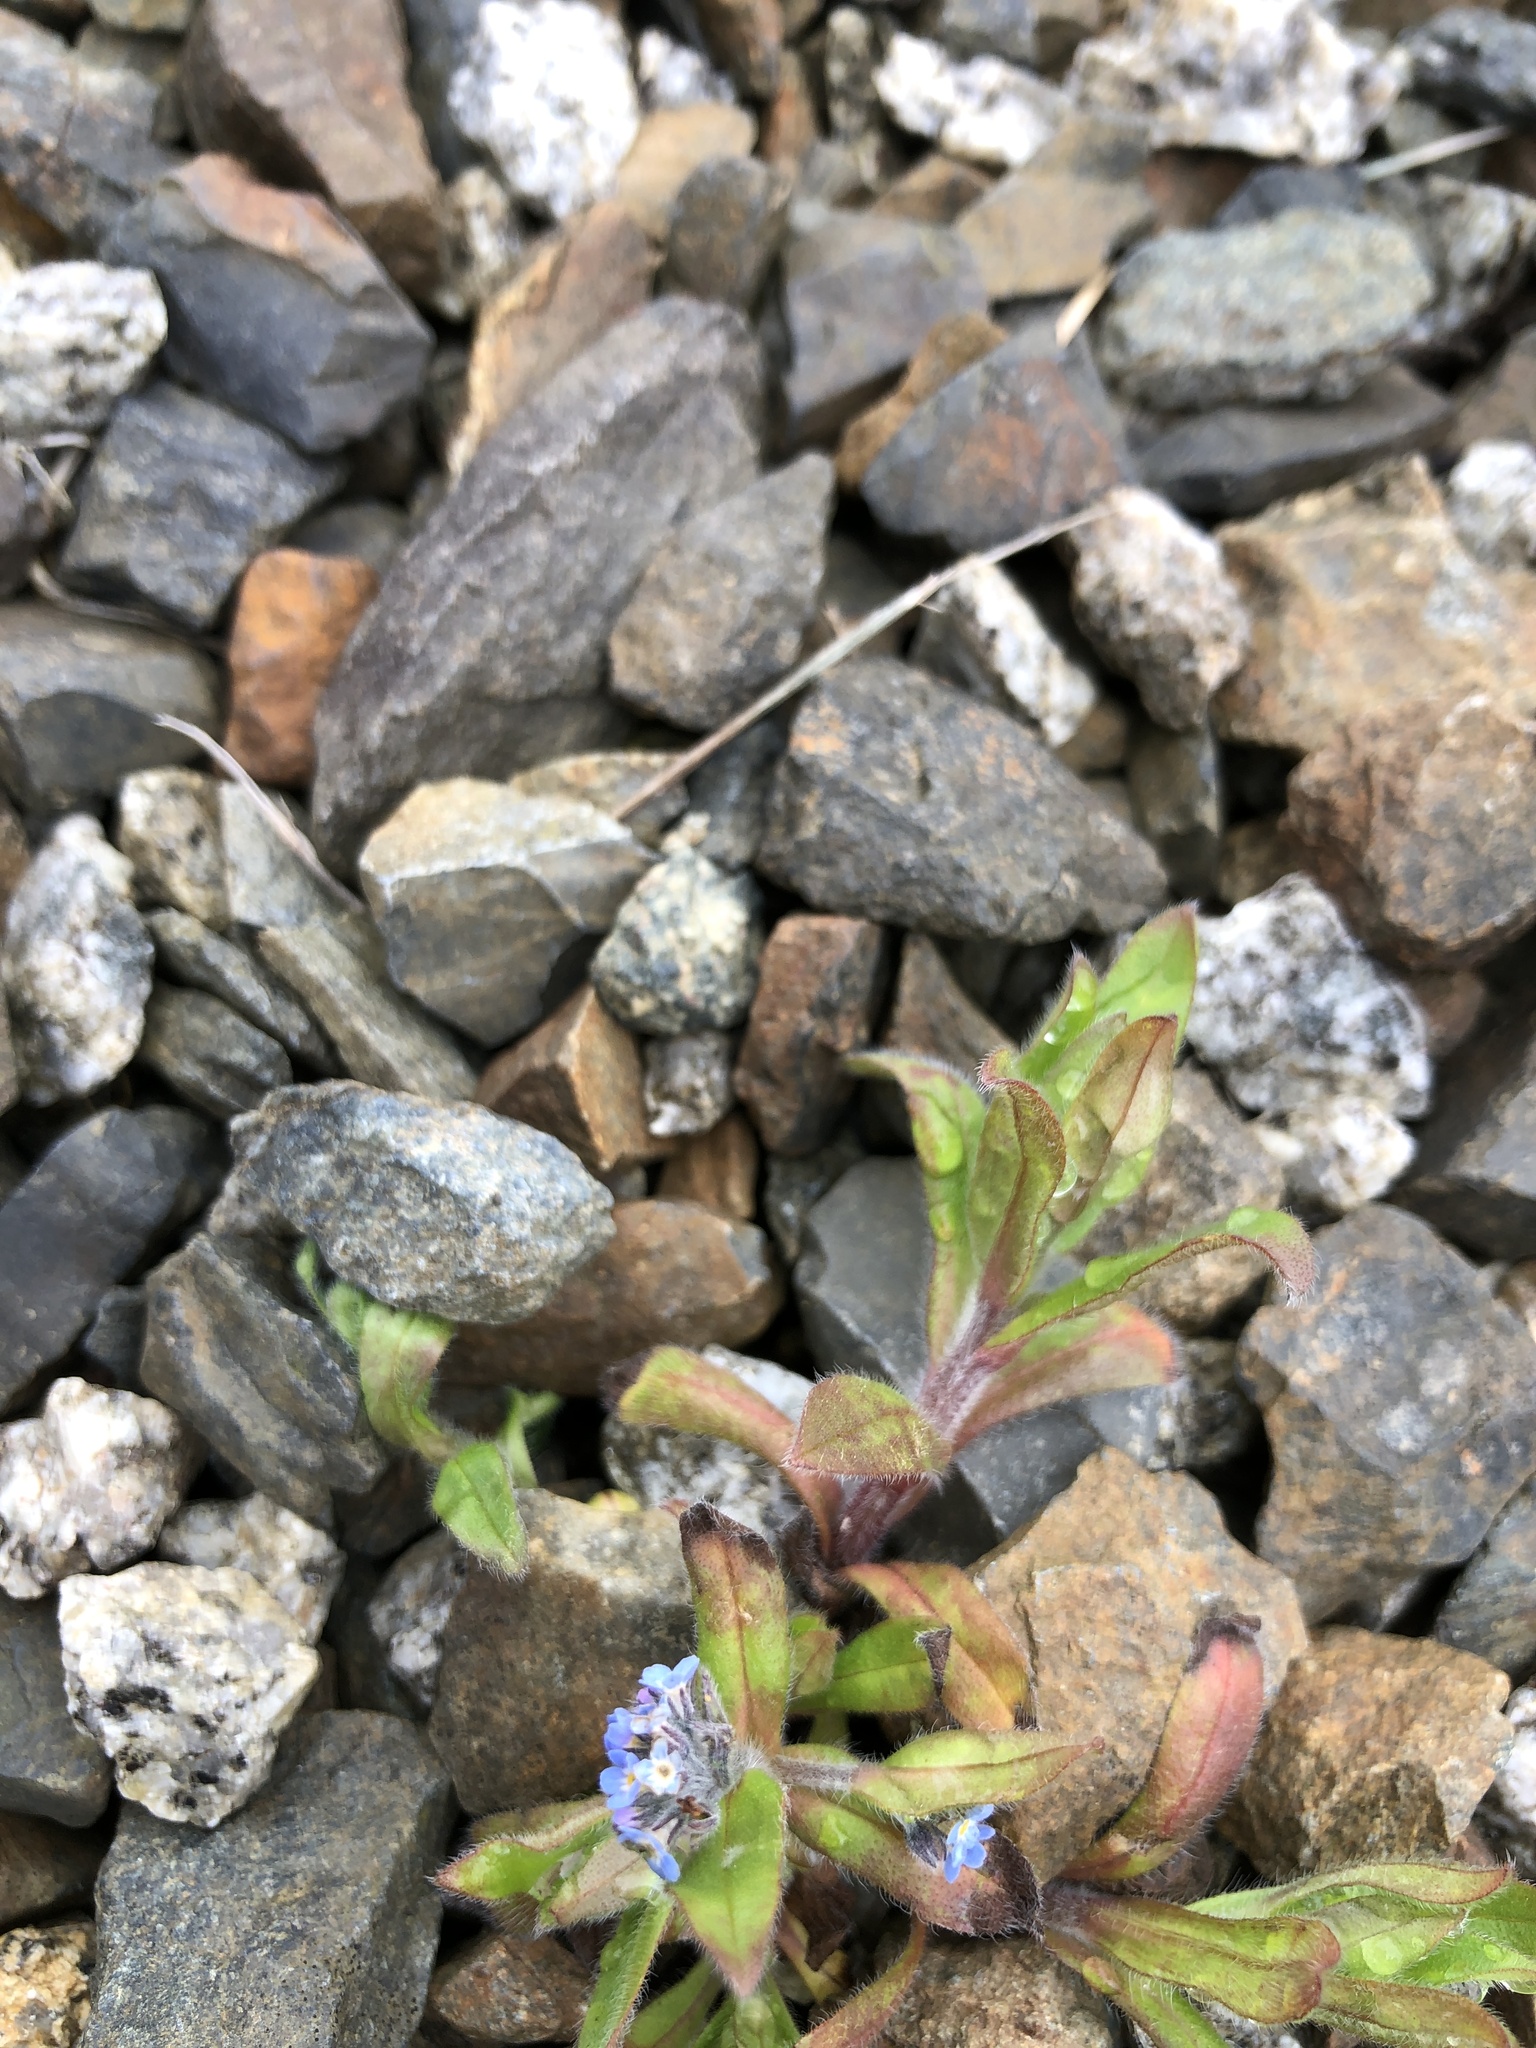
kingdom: Plantae
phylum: Tracheophyta
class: Magnoliopsida
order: Boraginales
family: Boraginaceae
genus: Myosotis
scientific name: Myosotis arvensis
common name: Field forget-me-not
